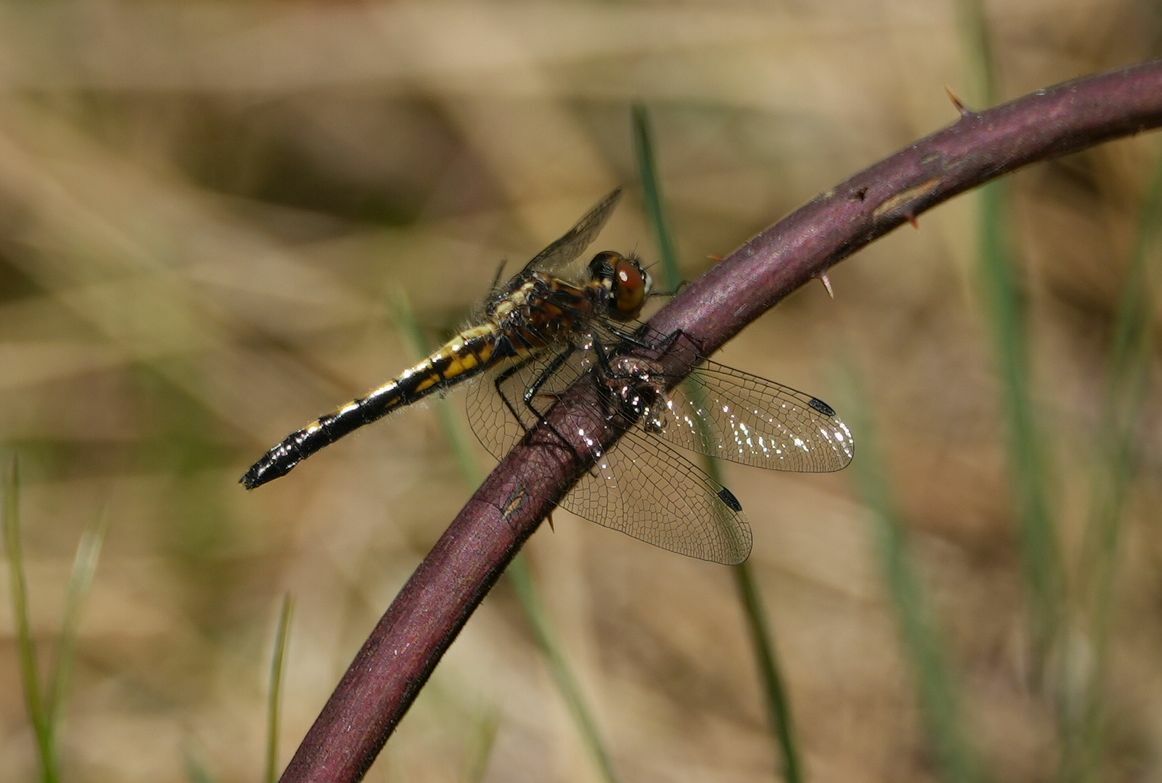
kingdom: Animalia
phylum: Arthropoda
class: Insecta
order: Odonata
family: Libellulidae
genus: Leucorrhinia
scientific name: Leucorrhinia intacta
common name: Dot-tailed whiteface
